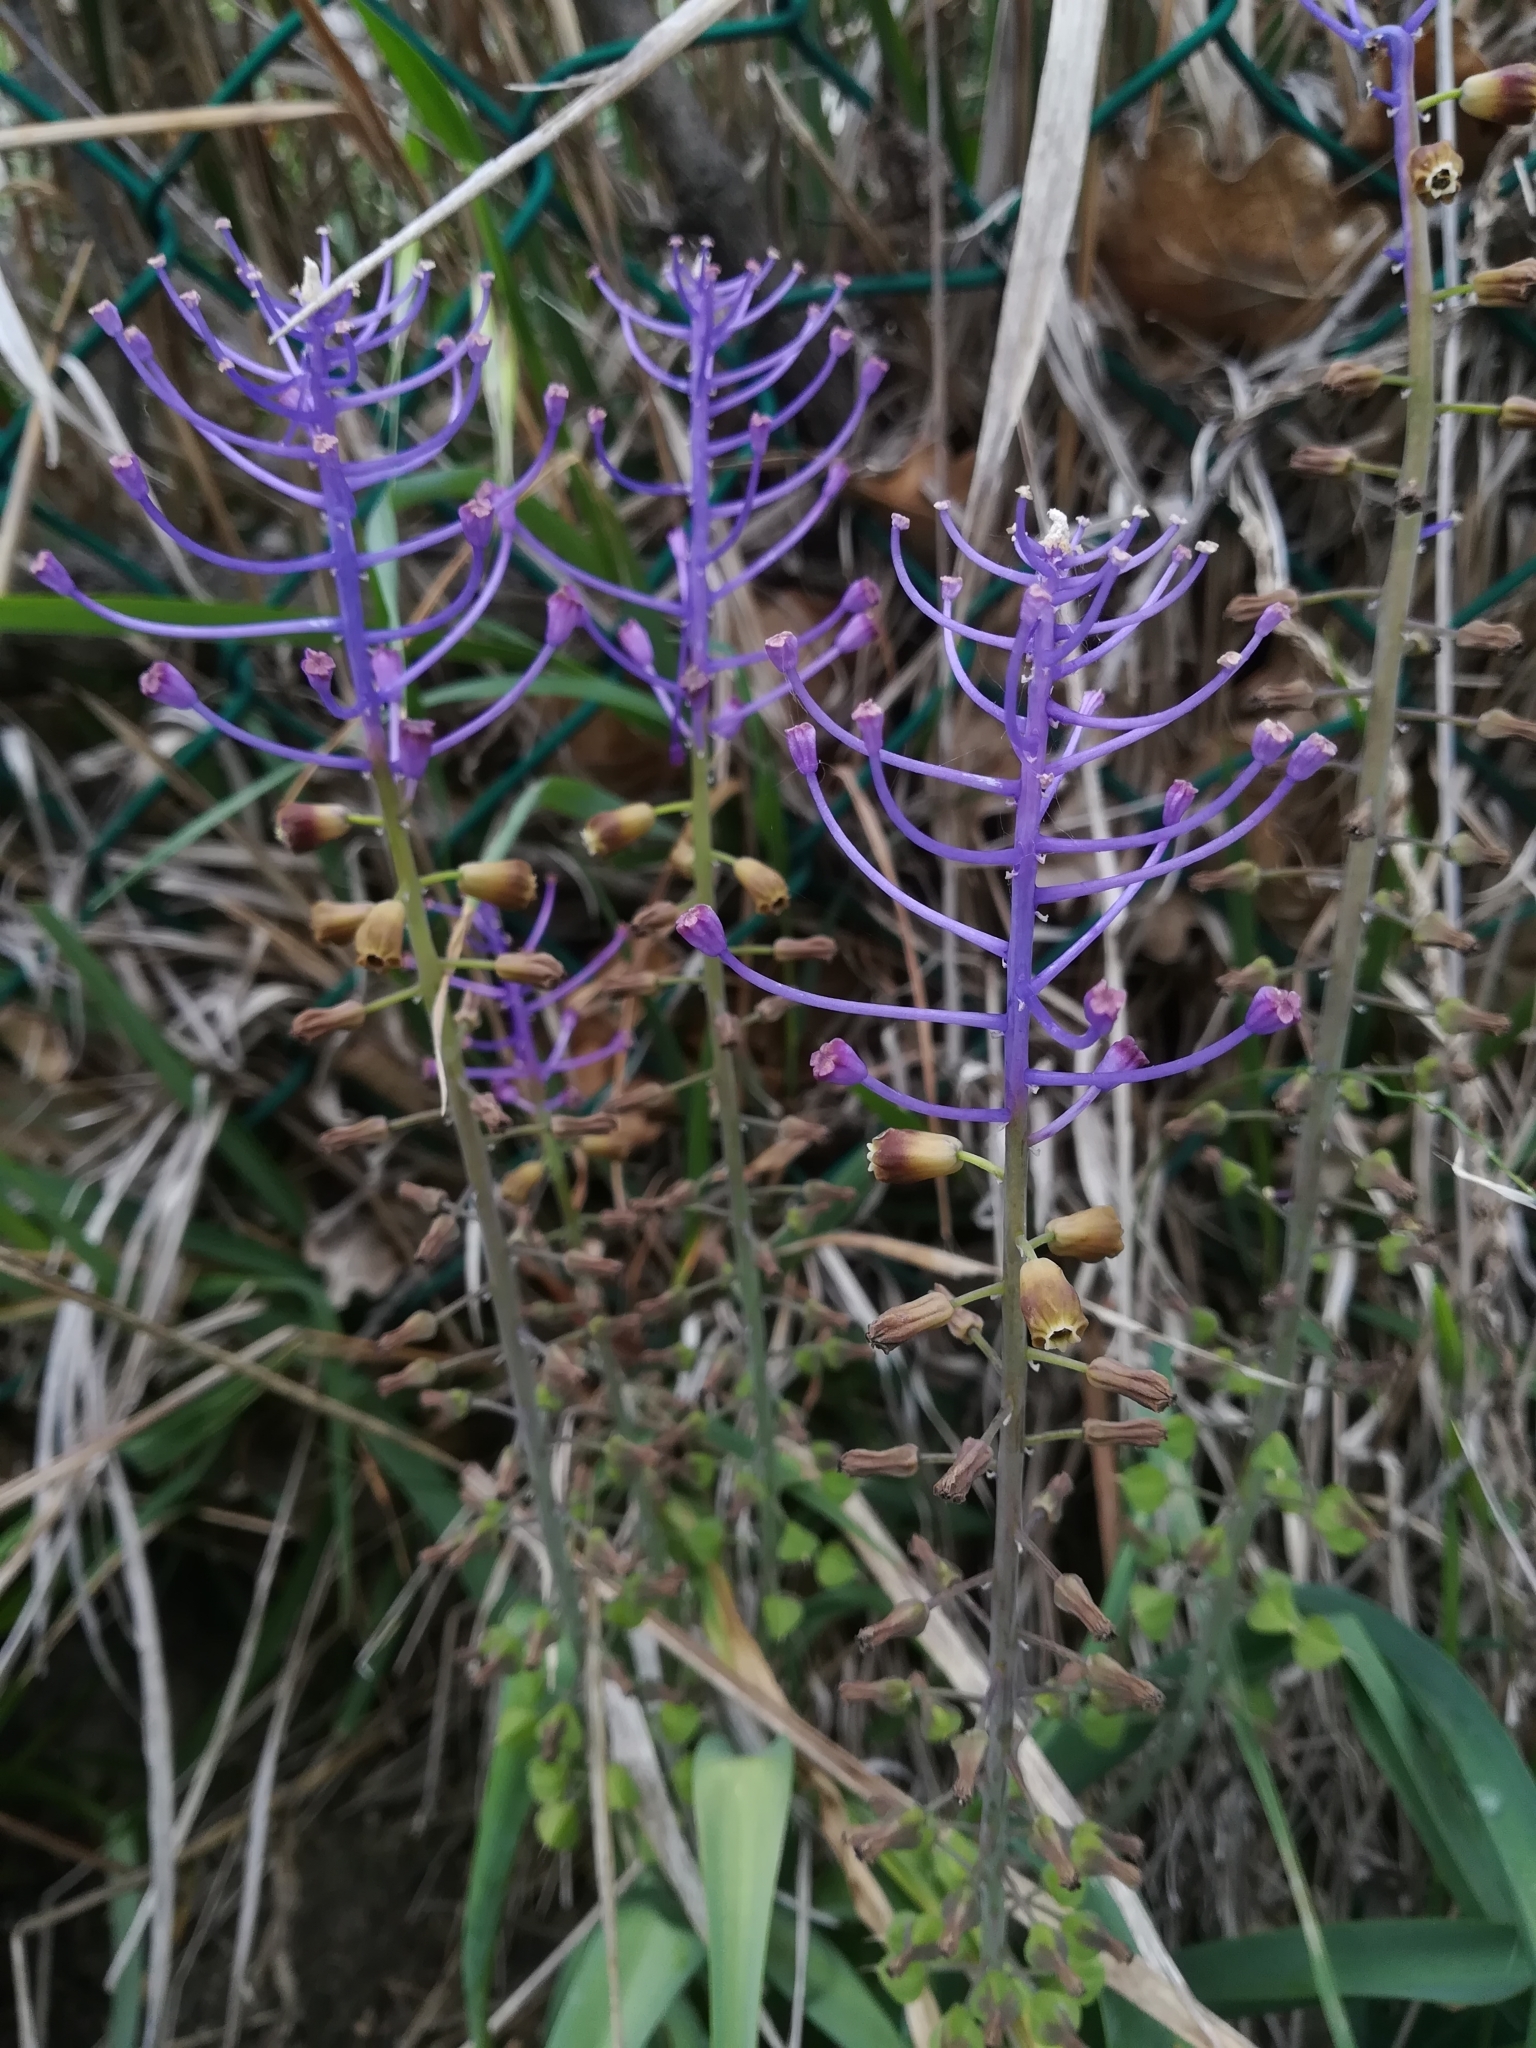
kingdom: Plantae
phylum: Tracheophyta
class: Liliopsida
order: Asparagales
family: Asparagaceae
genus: Muscari
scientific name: Muscari comosum
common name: Tassel hyacinth
